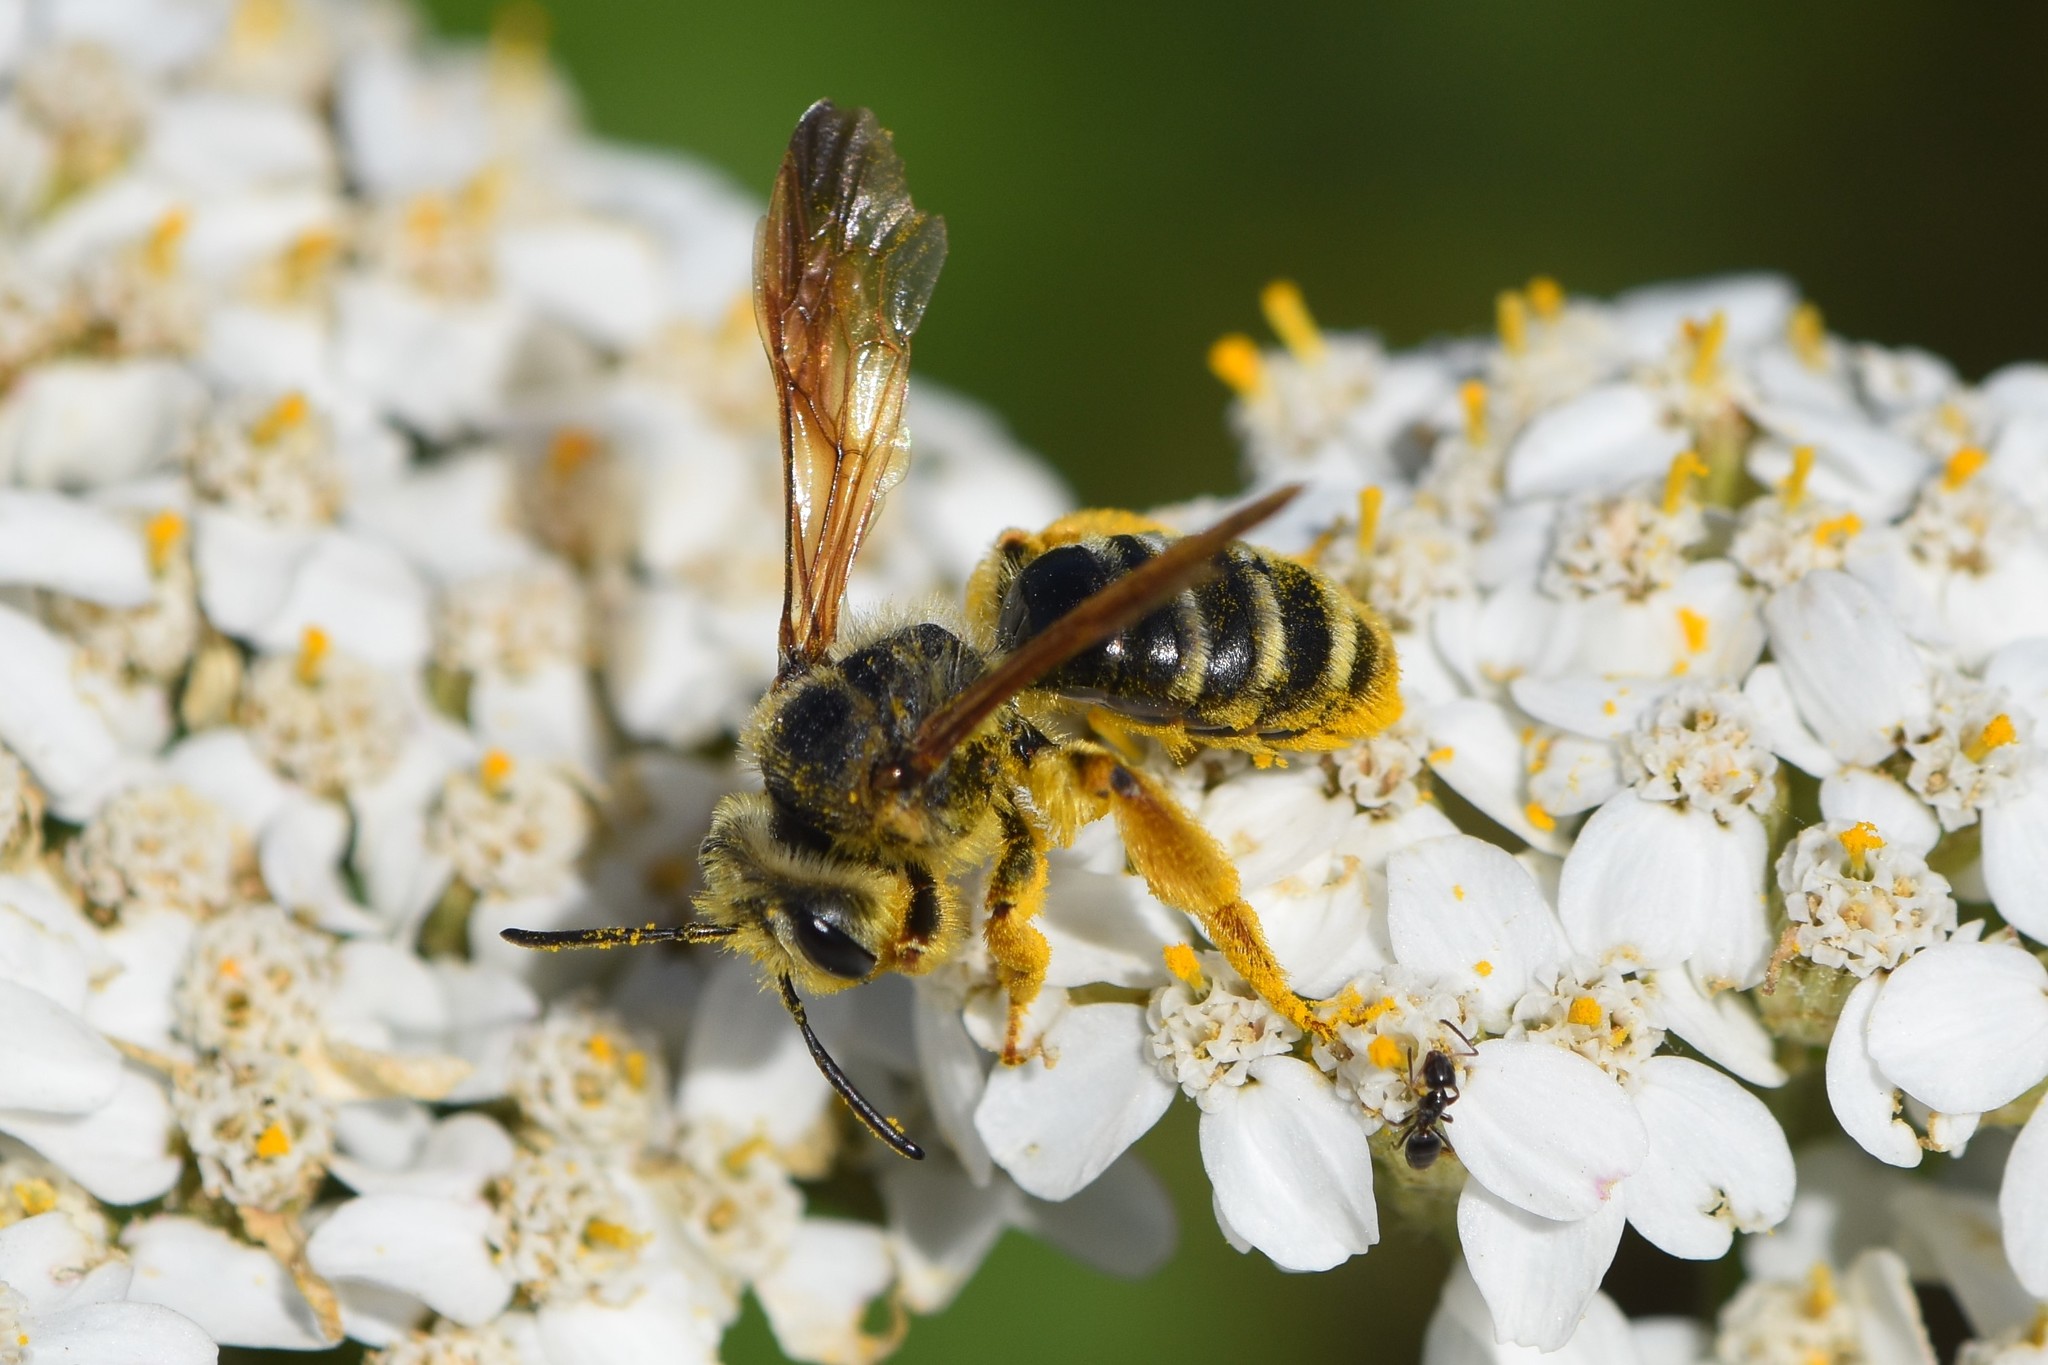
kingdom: Animalia
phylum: Arthropoda
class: Insecta
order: Hymenoptera
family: Andrenidae
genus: Andrena
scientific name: Andrena prunorum
